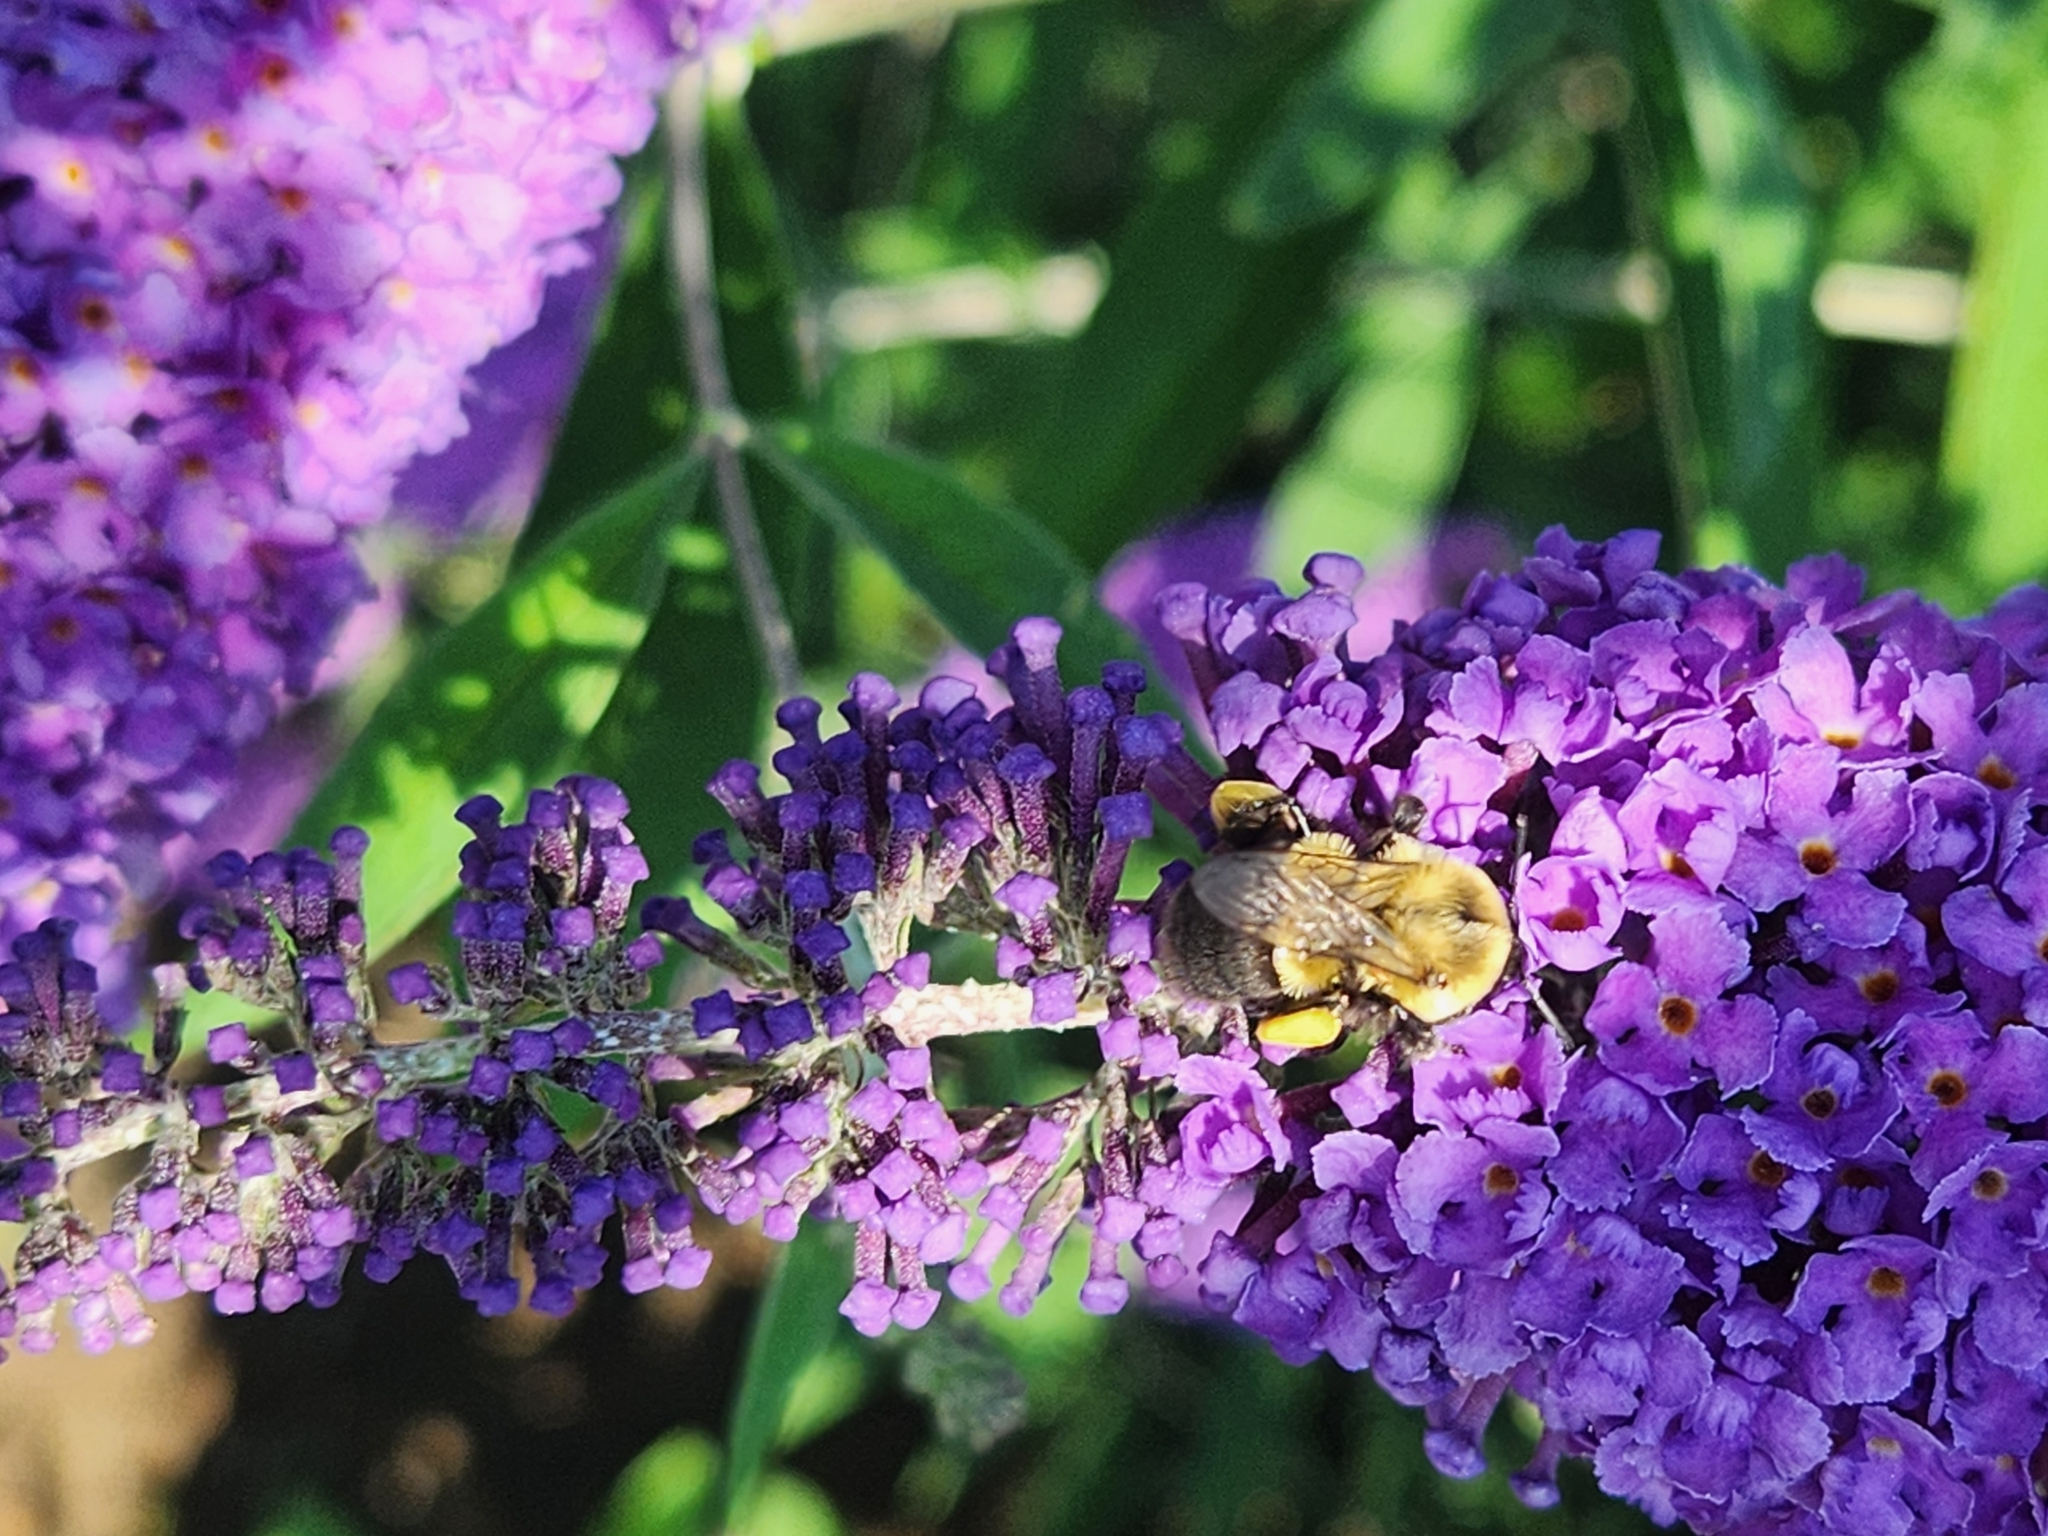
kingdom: Animalia
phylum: Arthropoda
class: Insecta
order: Hymenoptera
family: Apidae
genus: Bombus
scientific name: Bombus impatiens
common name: Common eastern bumble bee
